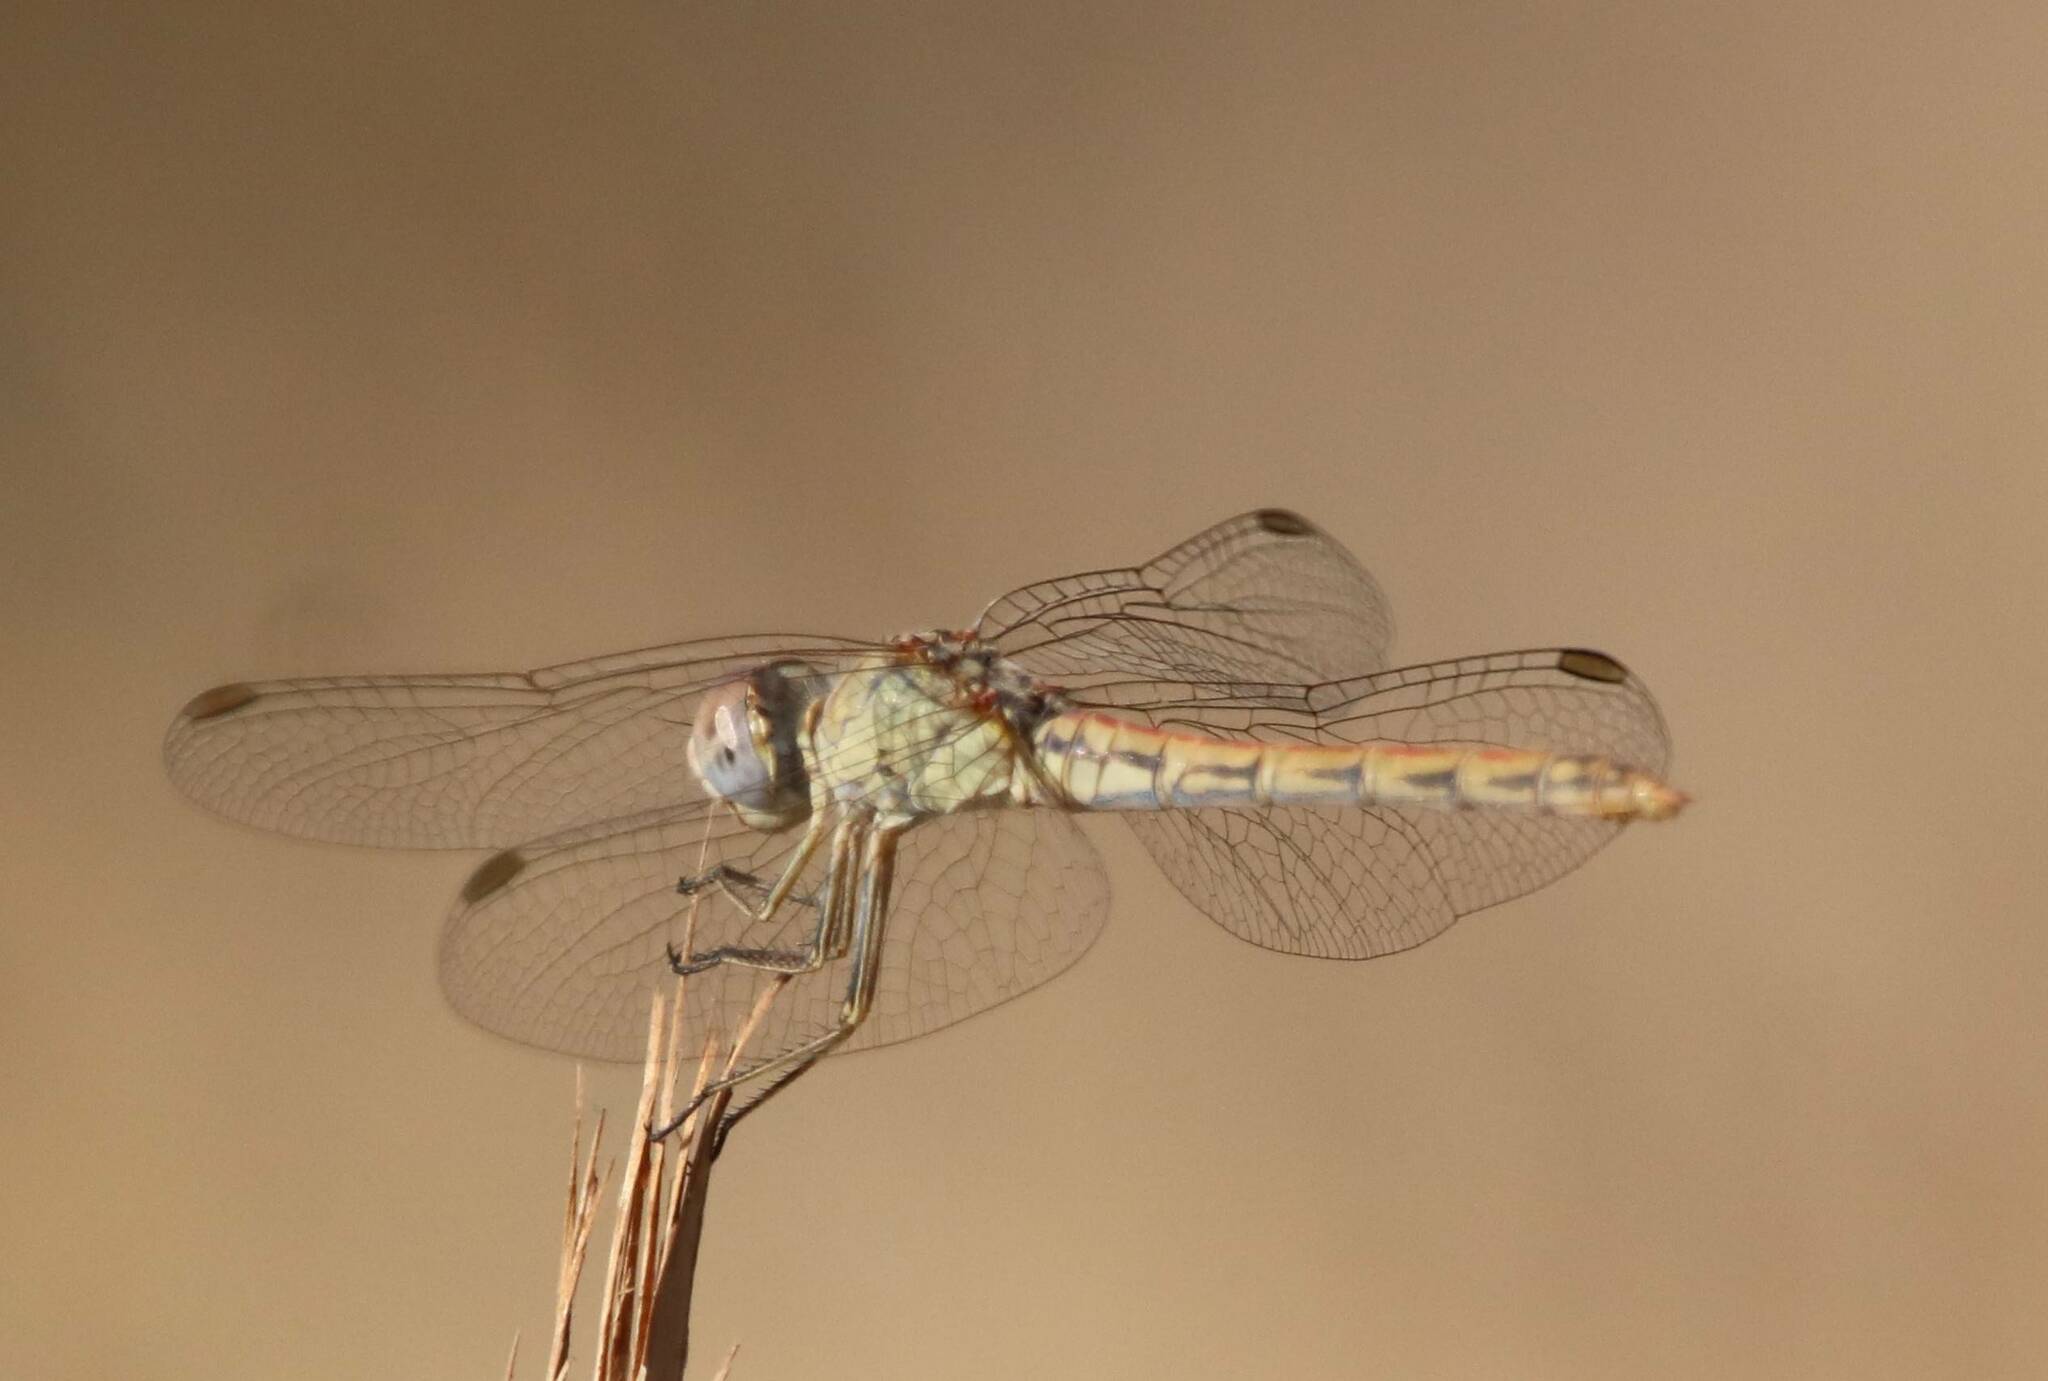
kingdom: Animalia
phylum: Arthropoda
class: Insecta
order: Odonata
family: Libellulidae
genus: Sympetrum
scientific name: Sympetrum sinaiticum
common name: Desert darter
